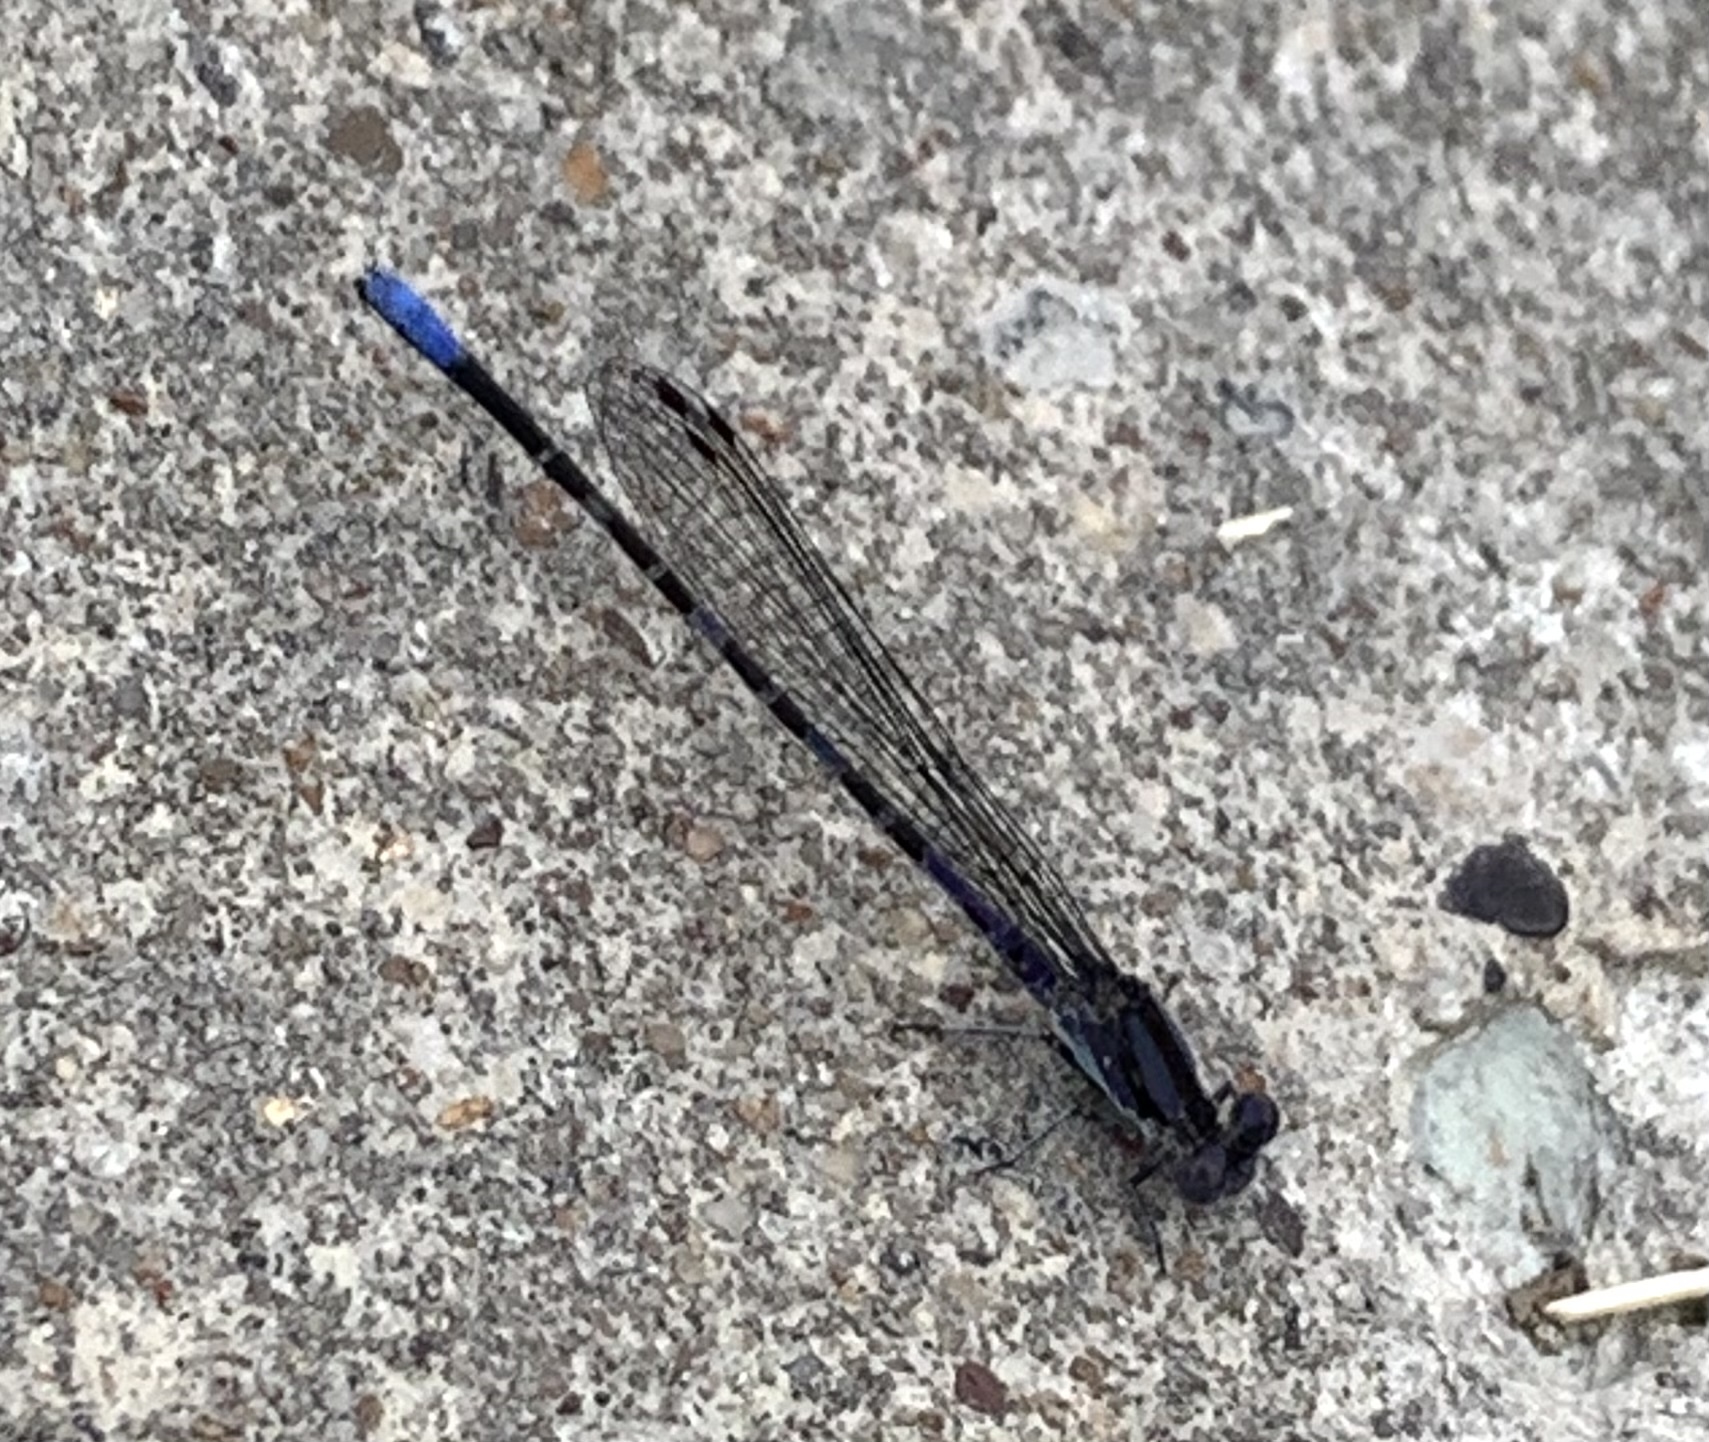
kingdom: Animalia
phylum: Arthropoda
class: Insecta
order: Odonata
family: Coenagrionidae
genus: Argia
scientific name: Argia immunda
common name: Kiowa dancer
